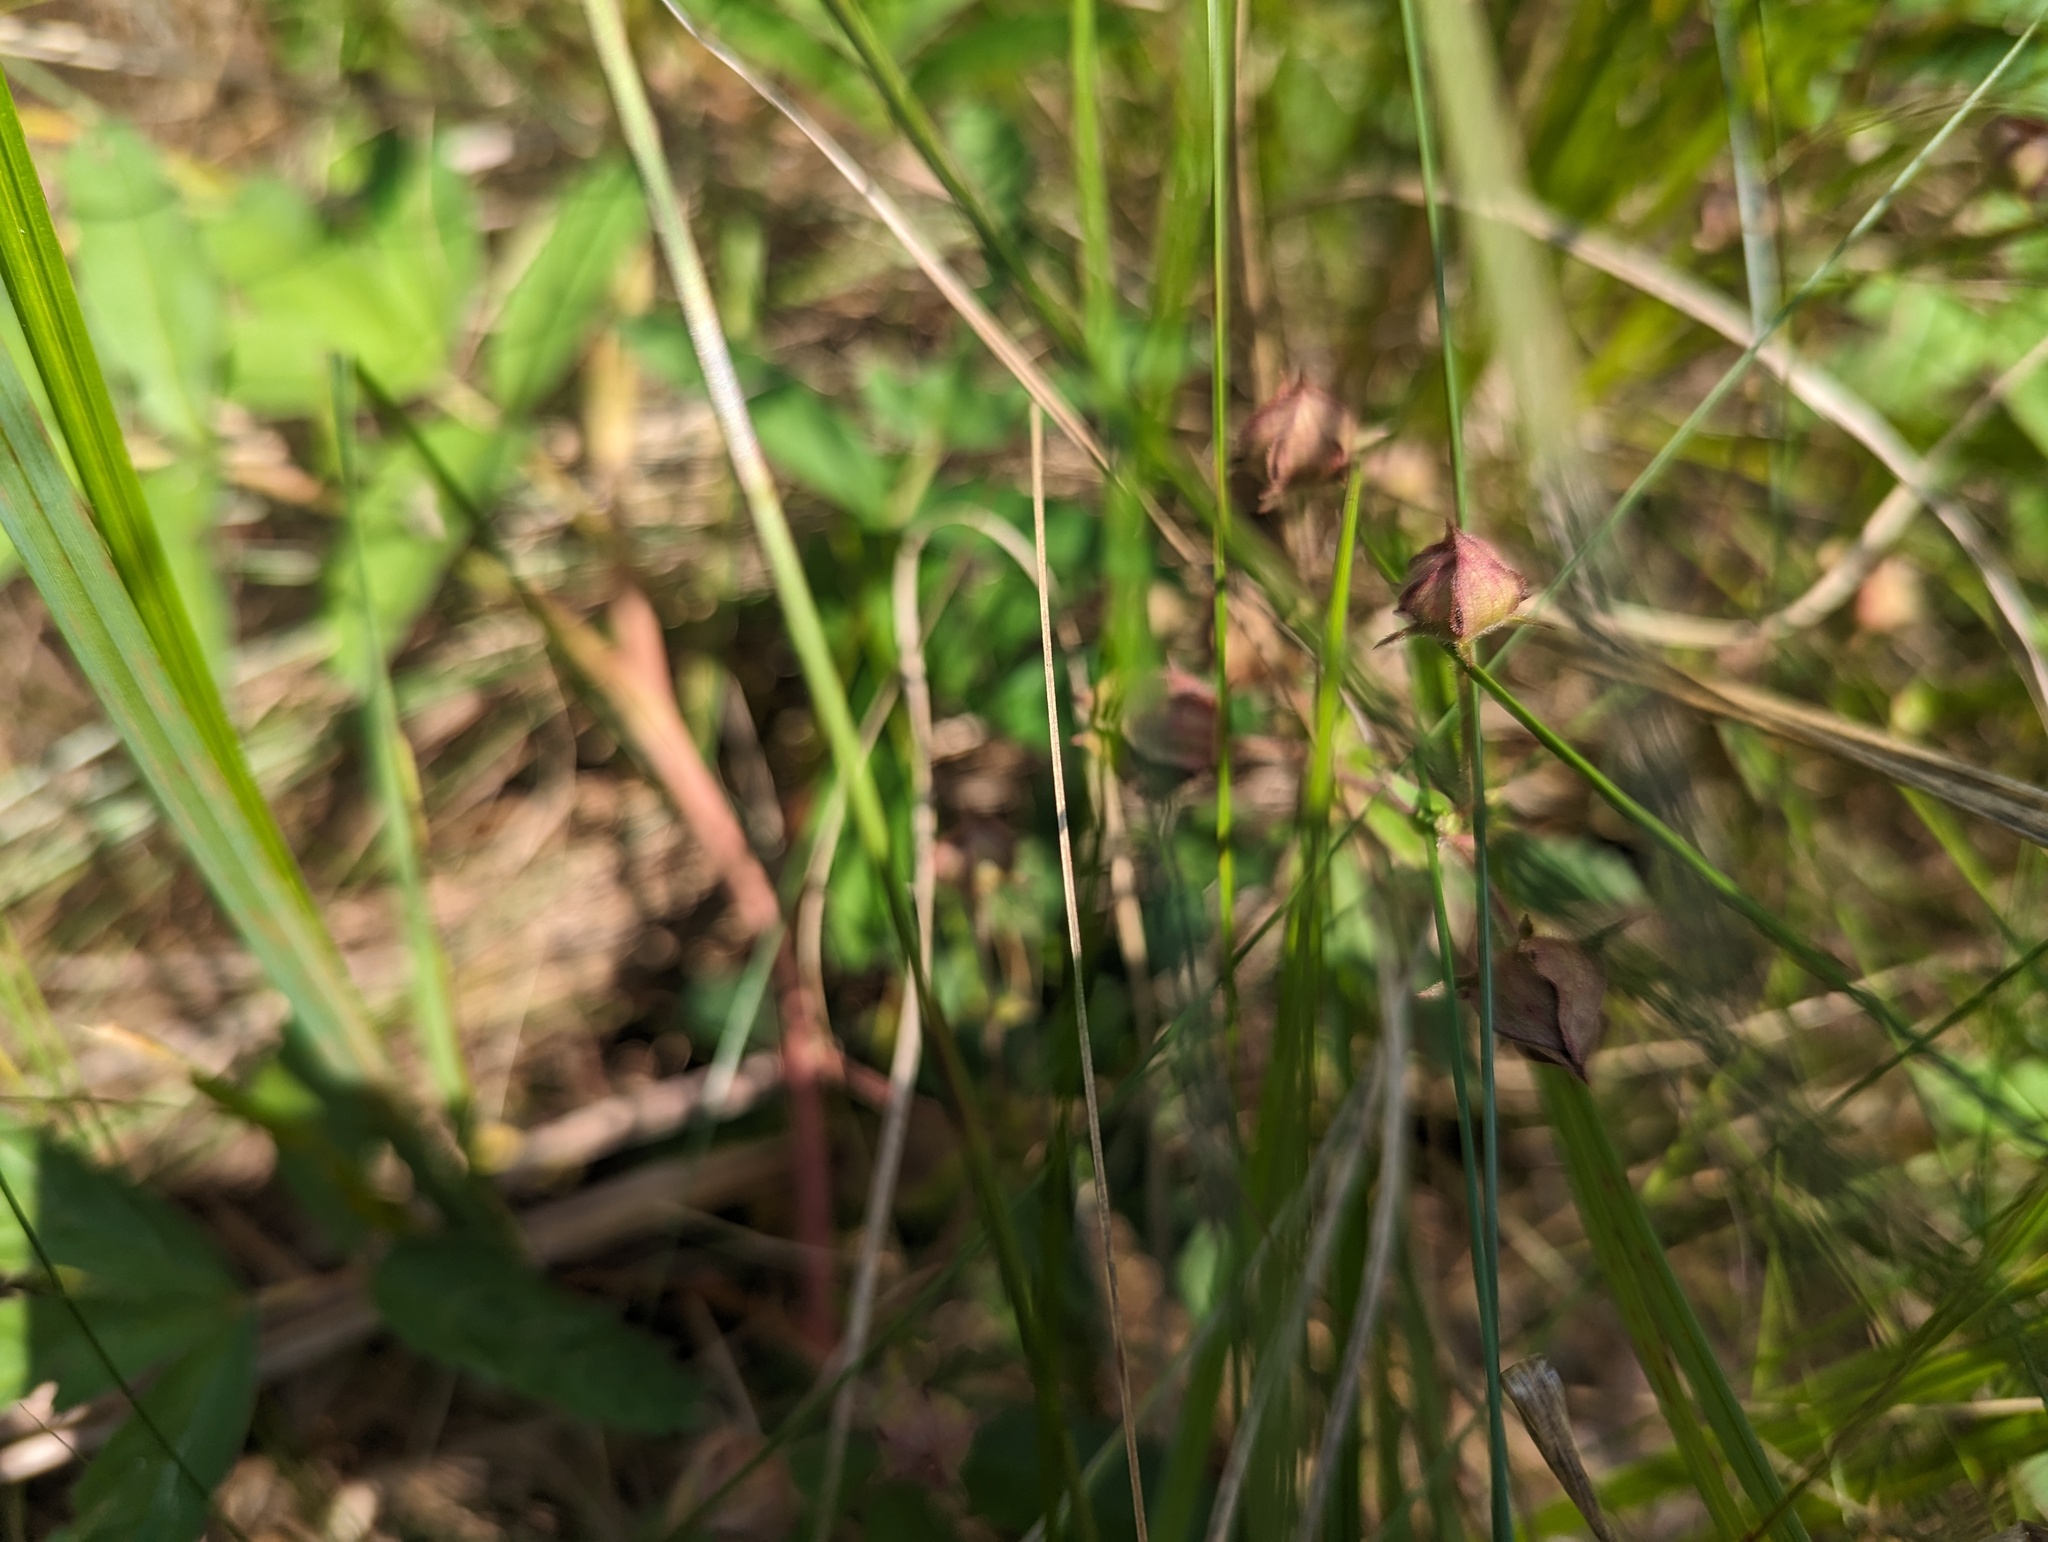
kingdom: Plantae
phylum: Tracheophyta
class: Magnoliopsida
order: Rosales
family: Rosaceae
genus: Comarum
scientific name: Comarum palustre
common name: Marsh cinquefoil
